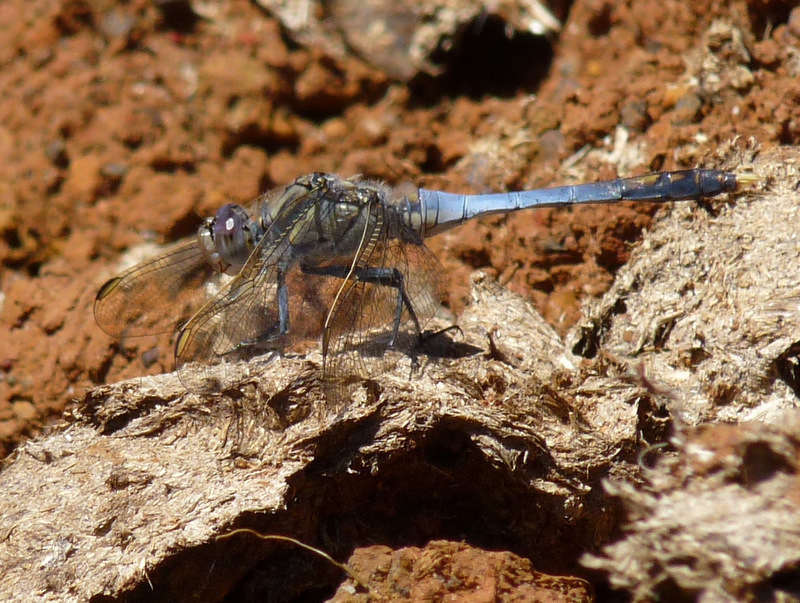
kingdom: Animalia
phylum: Arthropoda
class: Insecta
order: Odonata
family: Libellulidae
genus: Orthetrum
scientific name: Orthetrum caledonicum
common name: Blue skimmer
